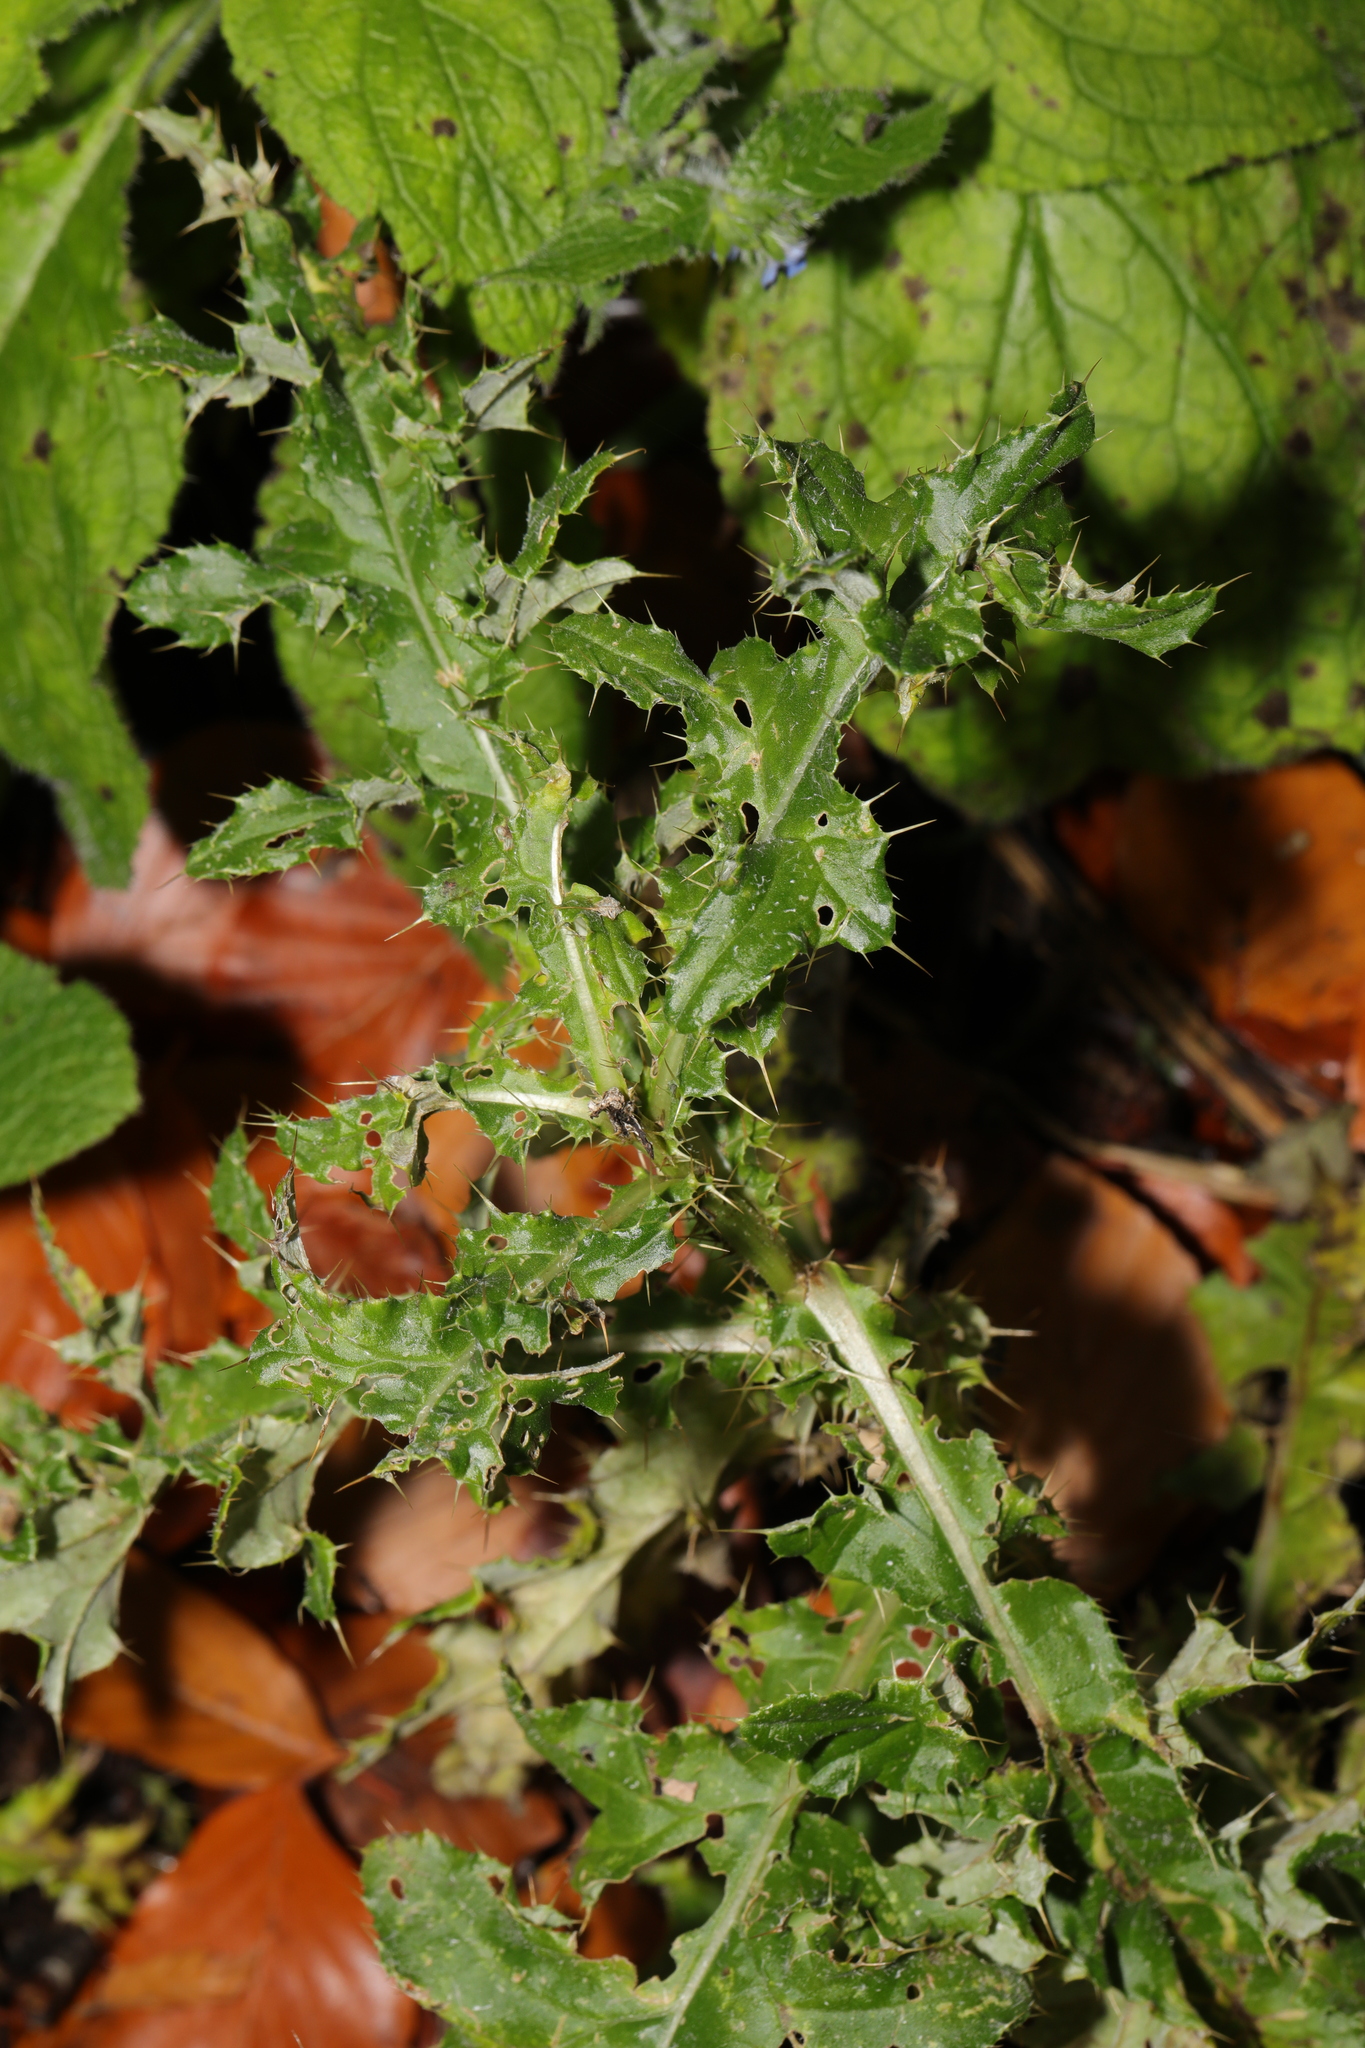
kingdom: Plantae
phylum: Tracheophyta
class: Magnoliopsida
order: Asterales
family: Asteraceae
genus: Cirsium
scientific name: Cirsium arvense
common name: Creeping thistle
